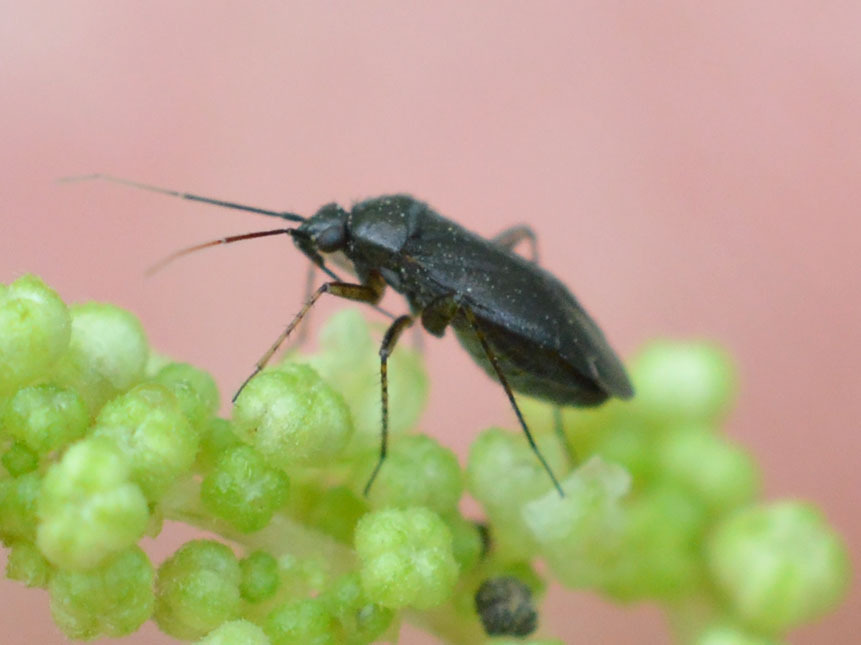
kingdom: Animalia
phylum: Arthropoda
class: Insecta
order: Hemiptera
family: Miridae
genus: Plagiognathus
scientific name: Plagiognathus arbustorum
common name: Plant bug
